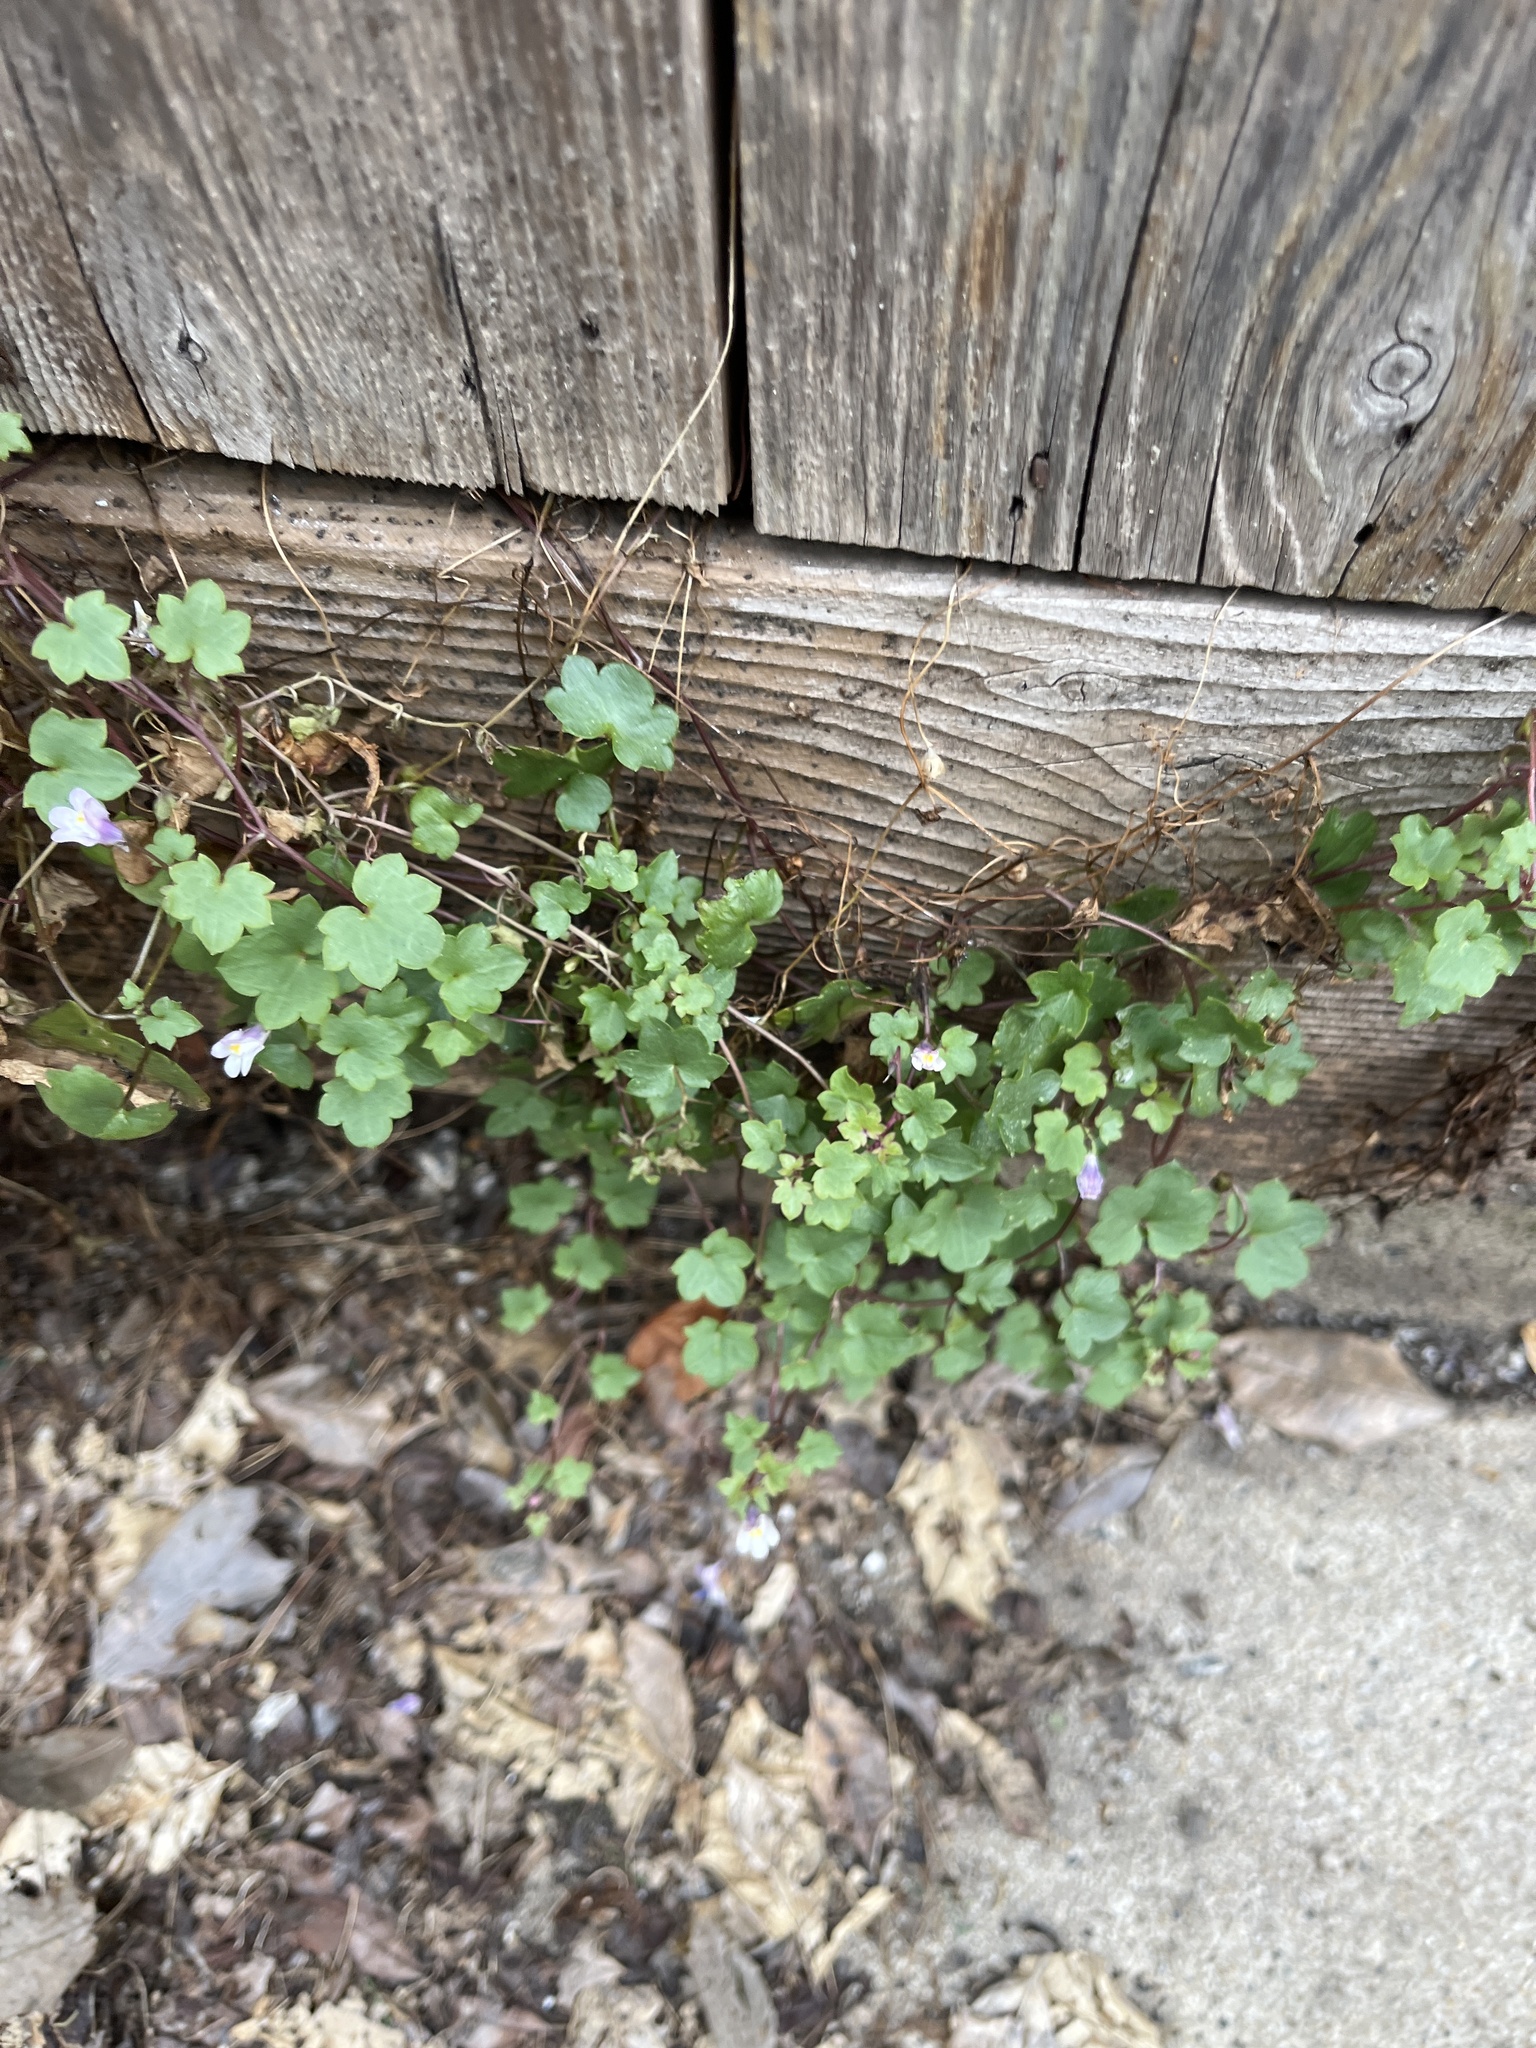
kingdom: Plantae
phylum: Tracheophyta
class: Magnoliopsida
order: Lamiales
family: Plantaginaceae
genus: Cymbalaria
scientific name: Cymbalaria muralis
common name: Ivy-leaved toadflax
